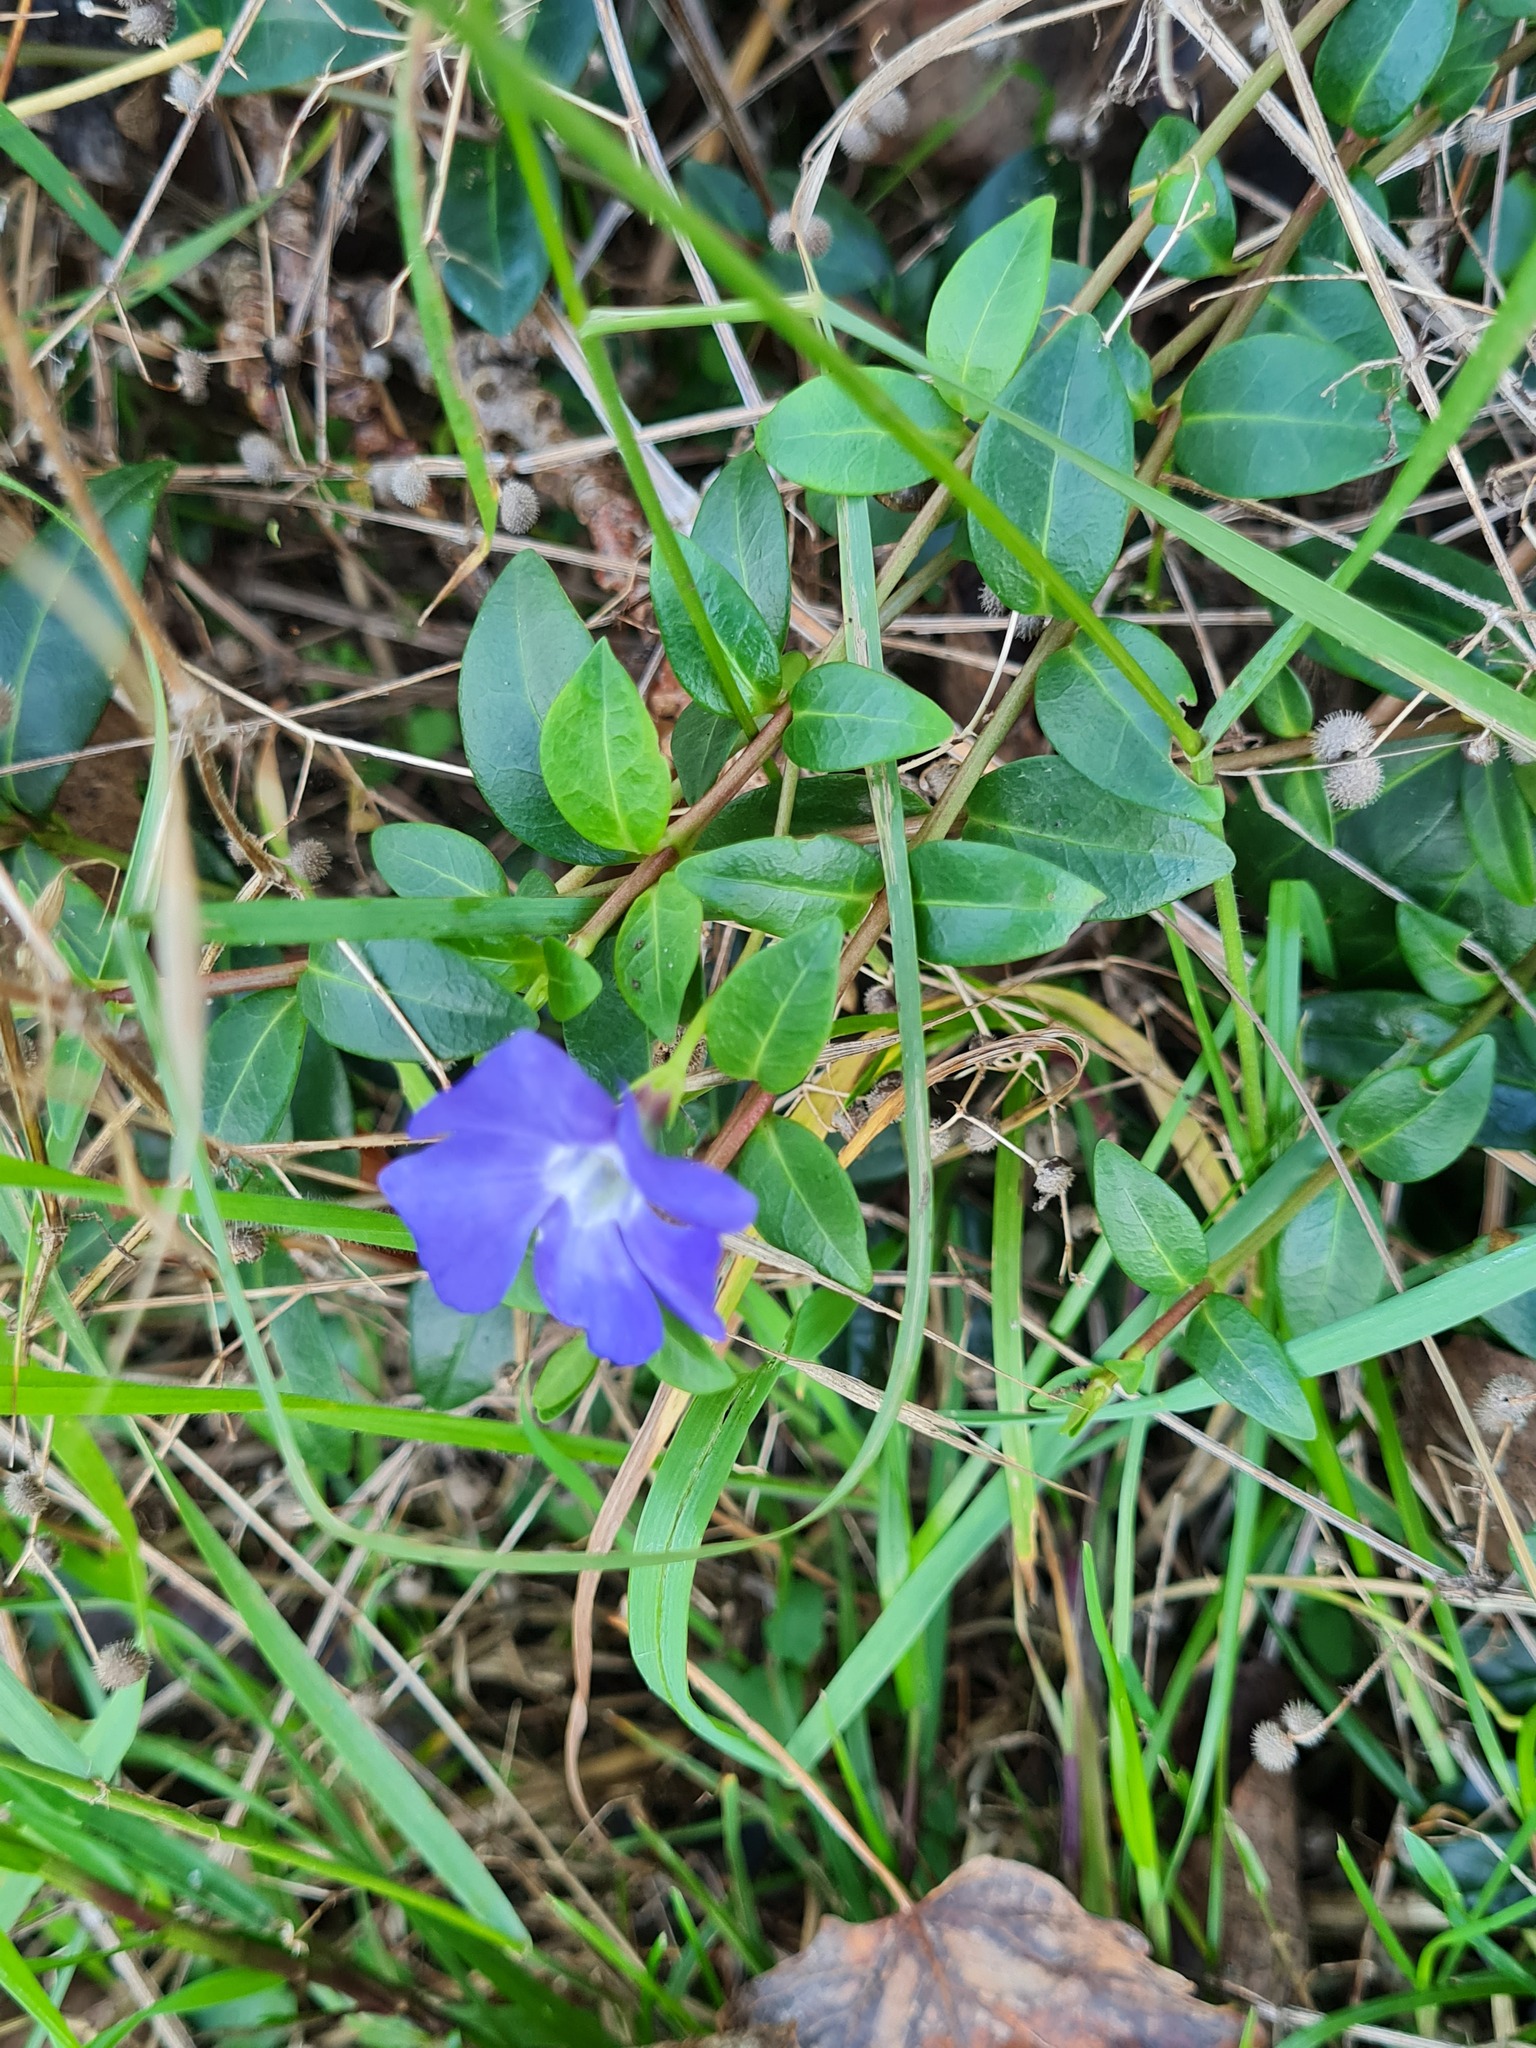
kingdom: Plantae
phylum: Tracheophyta
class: Magnoliopsida
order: Gentianales
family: Apocynaceae
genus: Vinca
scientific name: Vinca minor
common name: Lesser periwinkle
